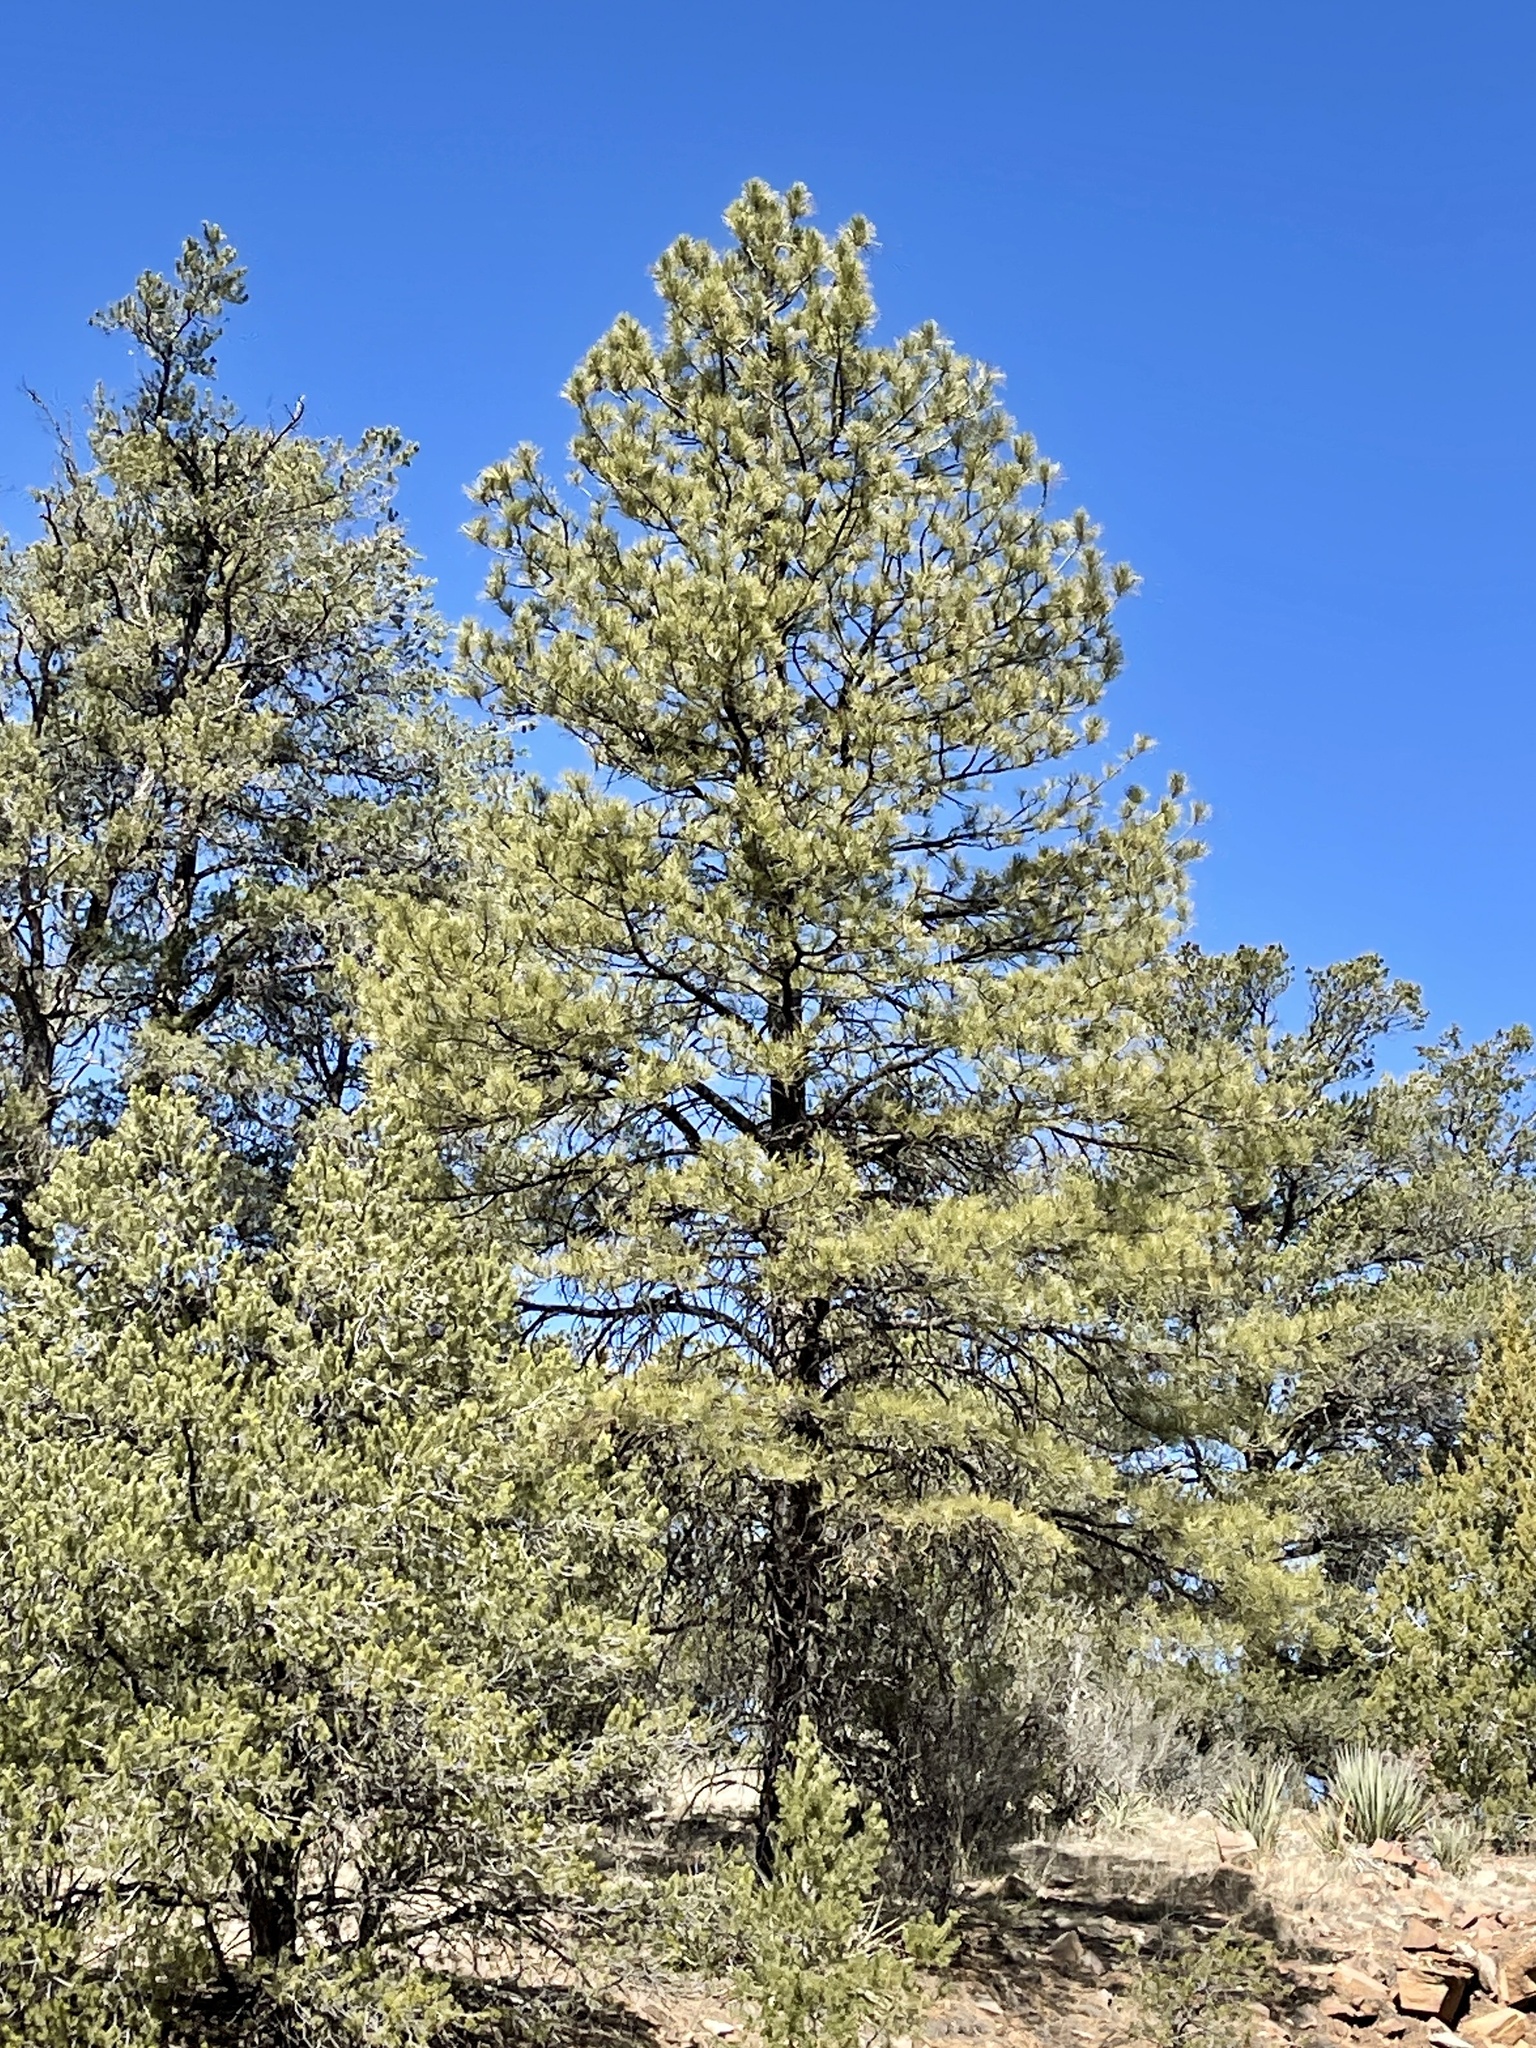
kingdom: Plantae
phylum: Tracheophyta
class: Pinopsida
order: Pinales
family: Pinaceae
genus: Pinus
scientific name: Pinus ponderosa
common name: Western yellow-pine
